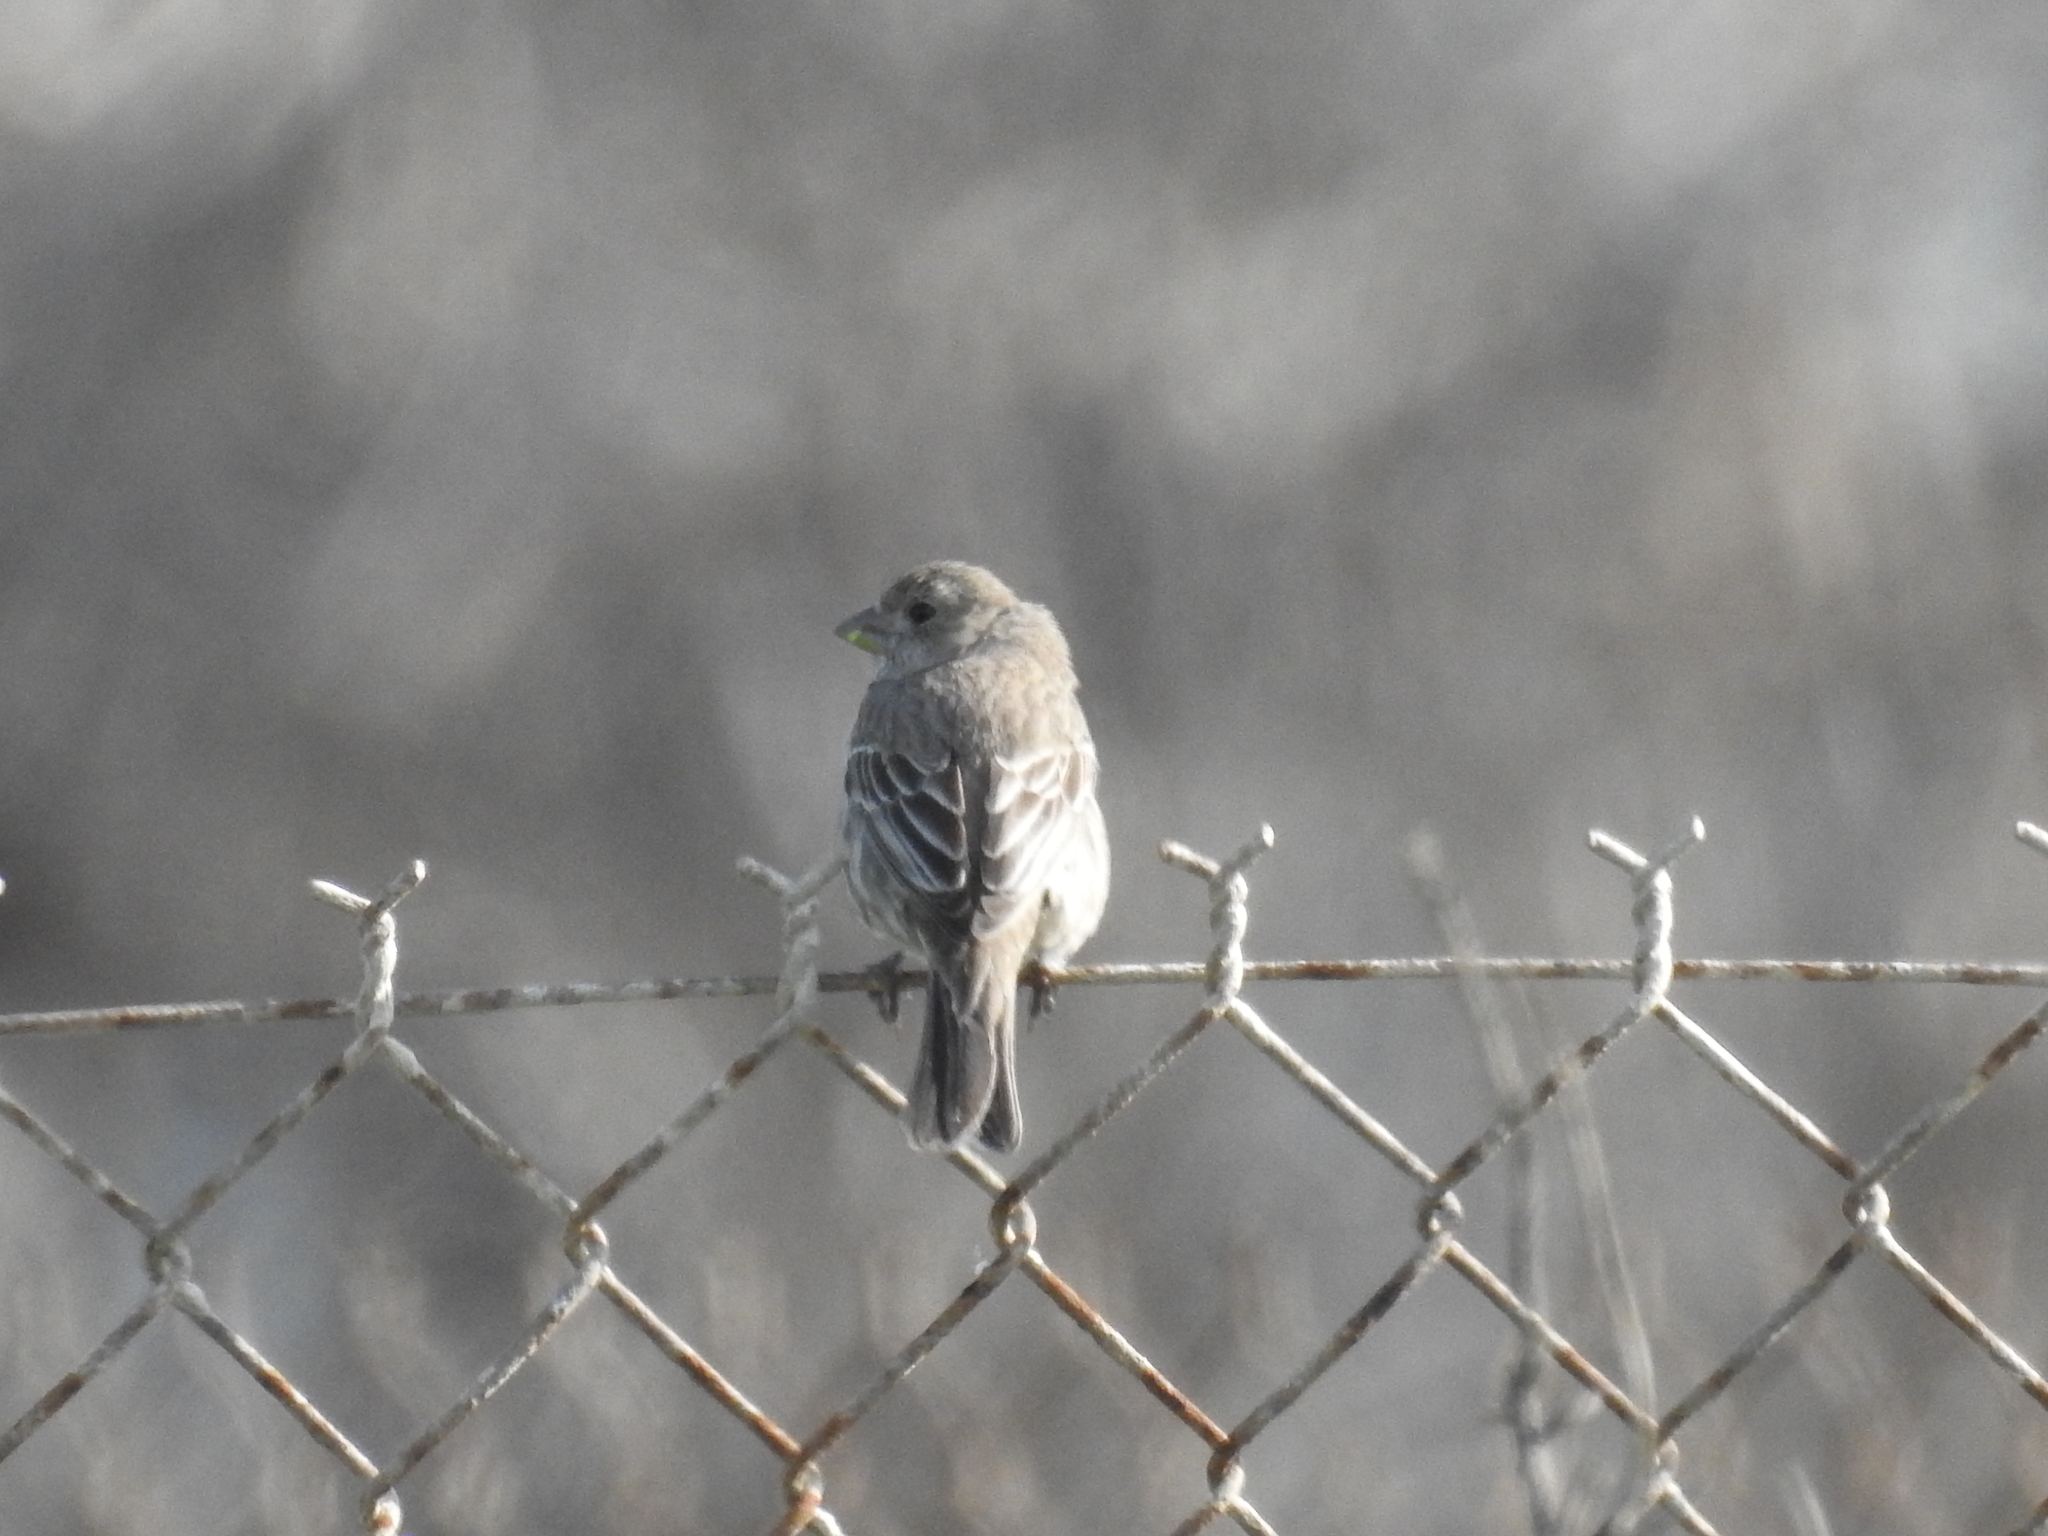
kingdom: Animalia
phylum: Chordata
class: Aves
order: Passeriformes
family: Fringillidae
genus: Haemorhous
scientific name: Haemorhous mexicanus
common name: House finch
